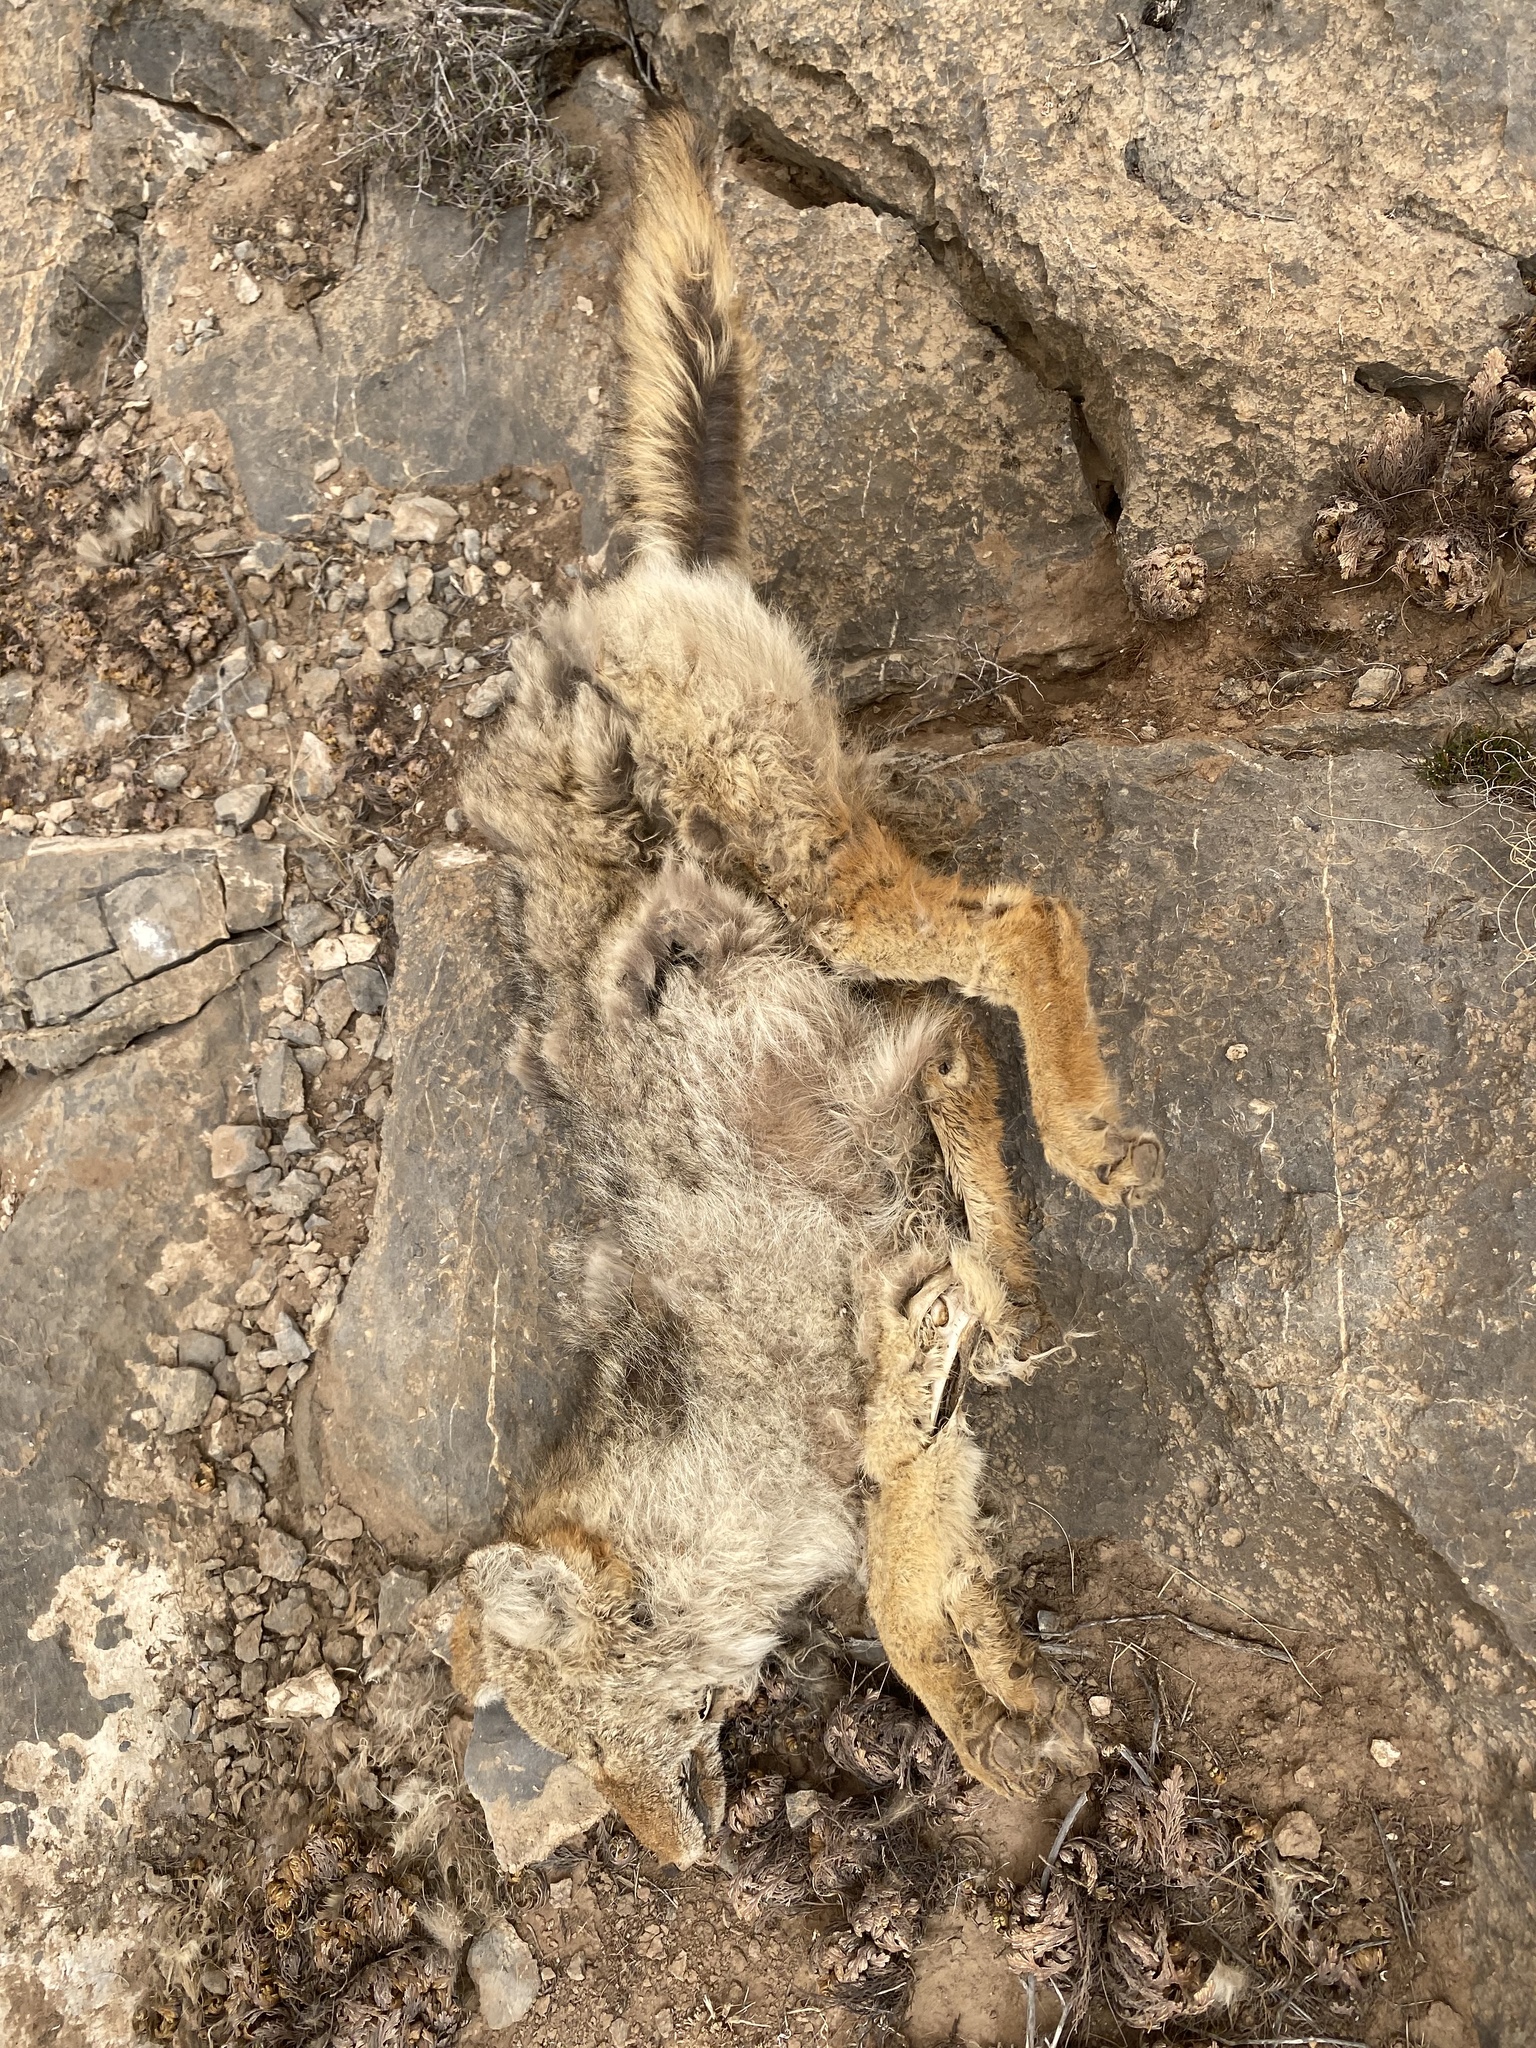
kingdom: Animalia
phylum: Chordata
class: Mammalia
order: Carnivora
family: Canidae
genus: Canis
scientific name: Canis latrans
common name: Coyote
